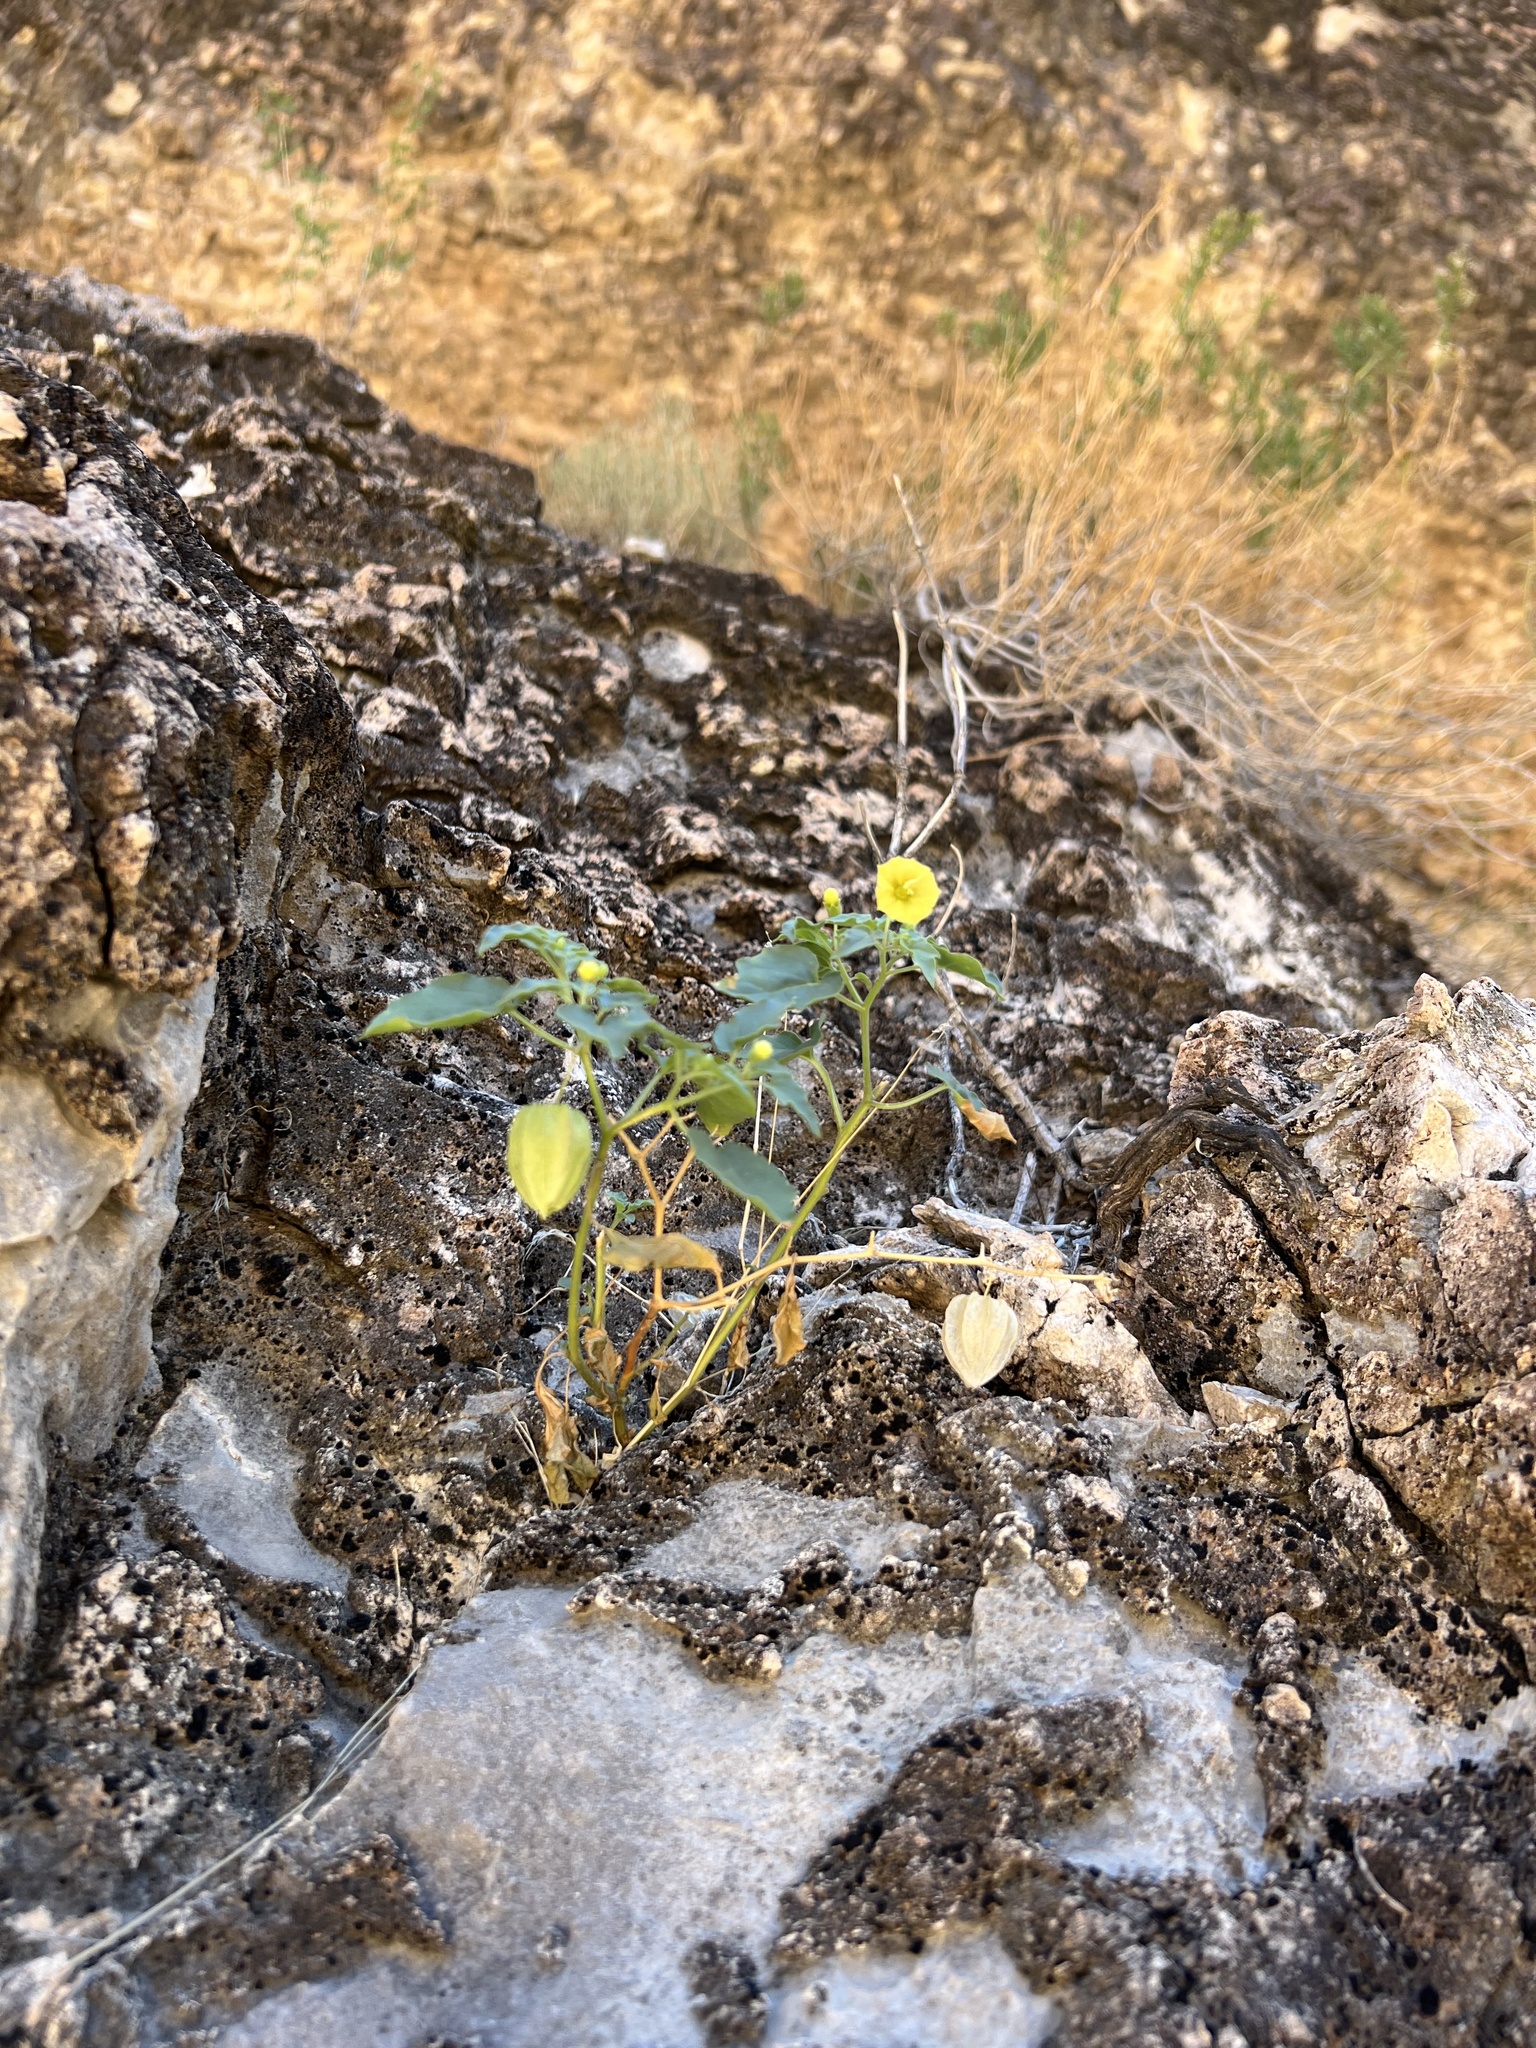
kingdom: Plantae
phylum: Tracheophyta
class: Magnoliopsida
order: Solanales
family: Solanaceae
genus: Physalis
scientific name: Physalis crassifolia
